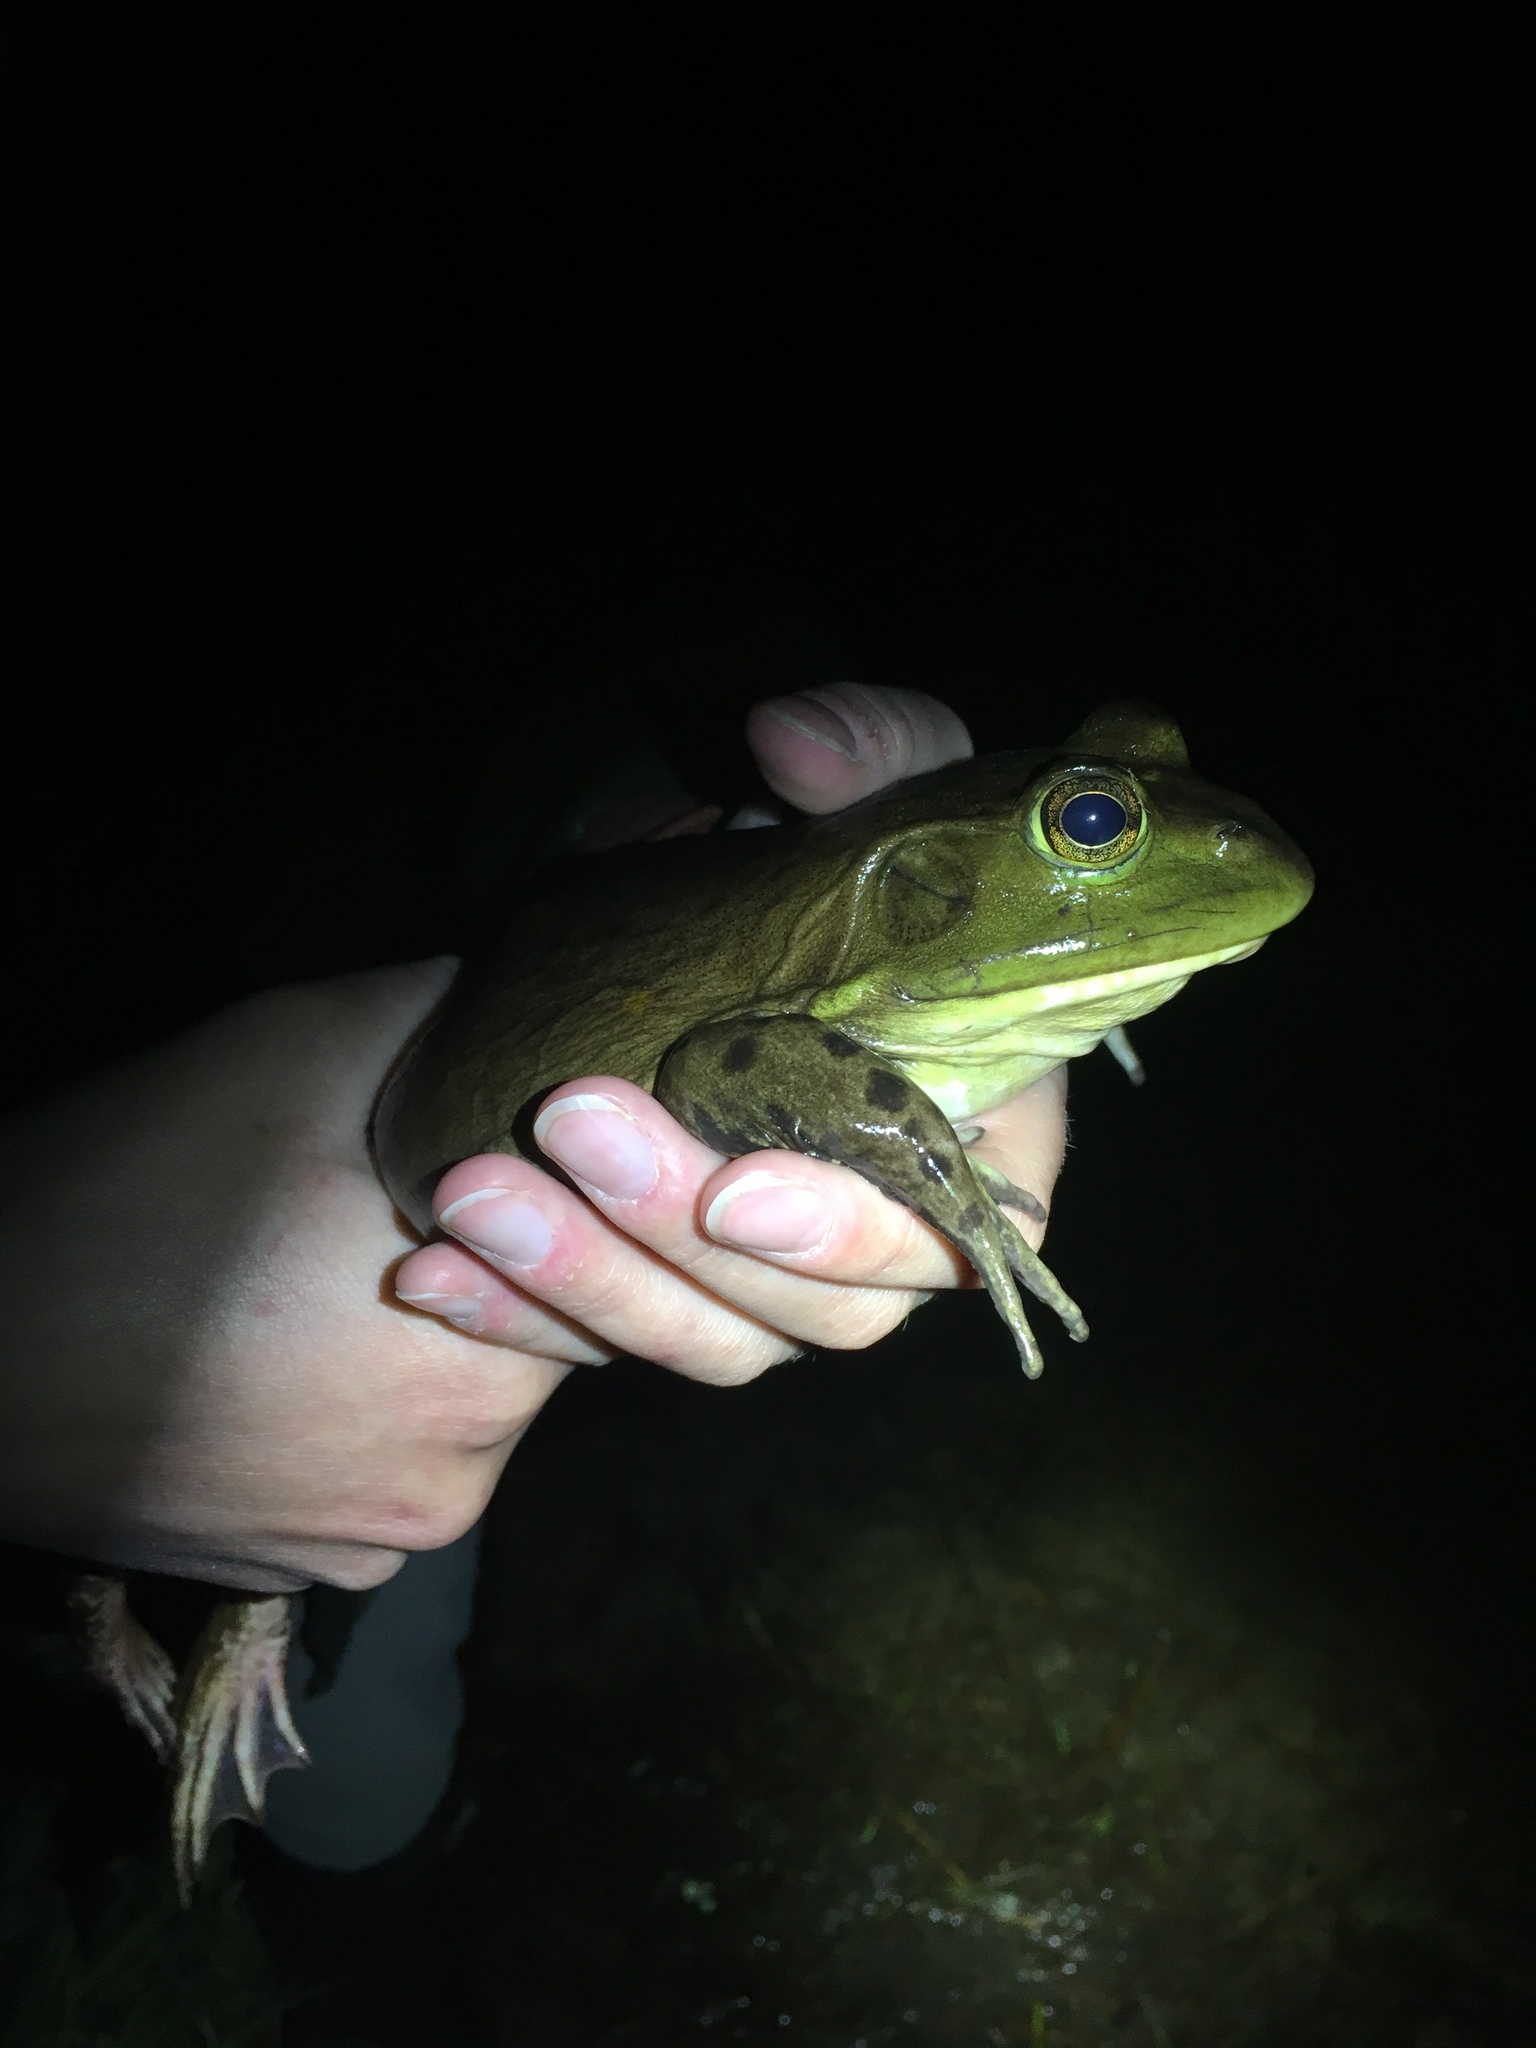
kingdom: Animalia
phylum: Chordata
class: Amphibia
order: Anura
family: Ranidae
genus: Lithobates
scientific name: Lithobates catesbeianus
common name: American bullfrog
